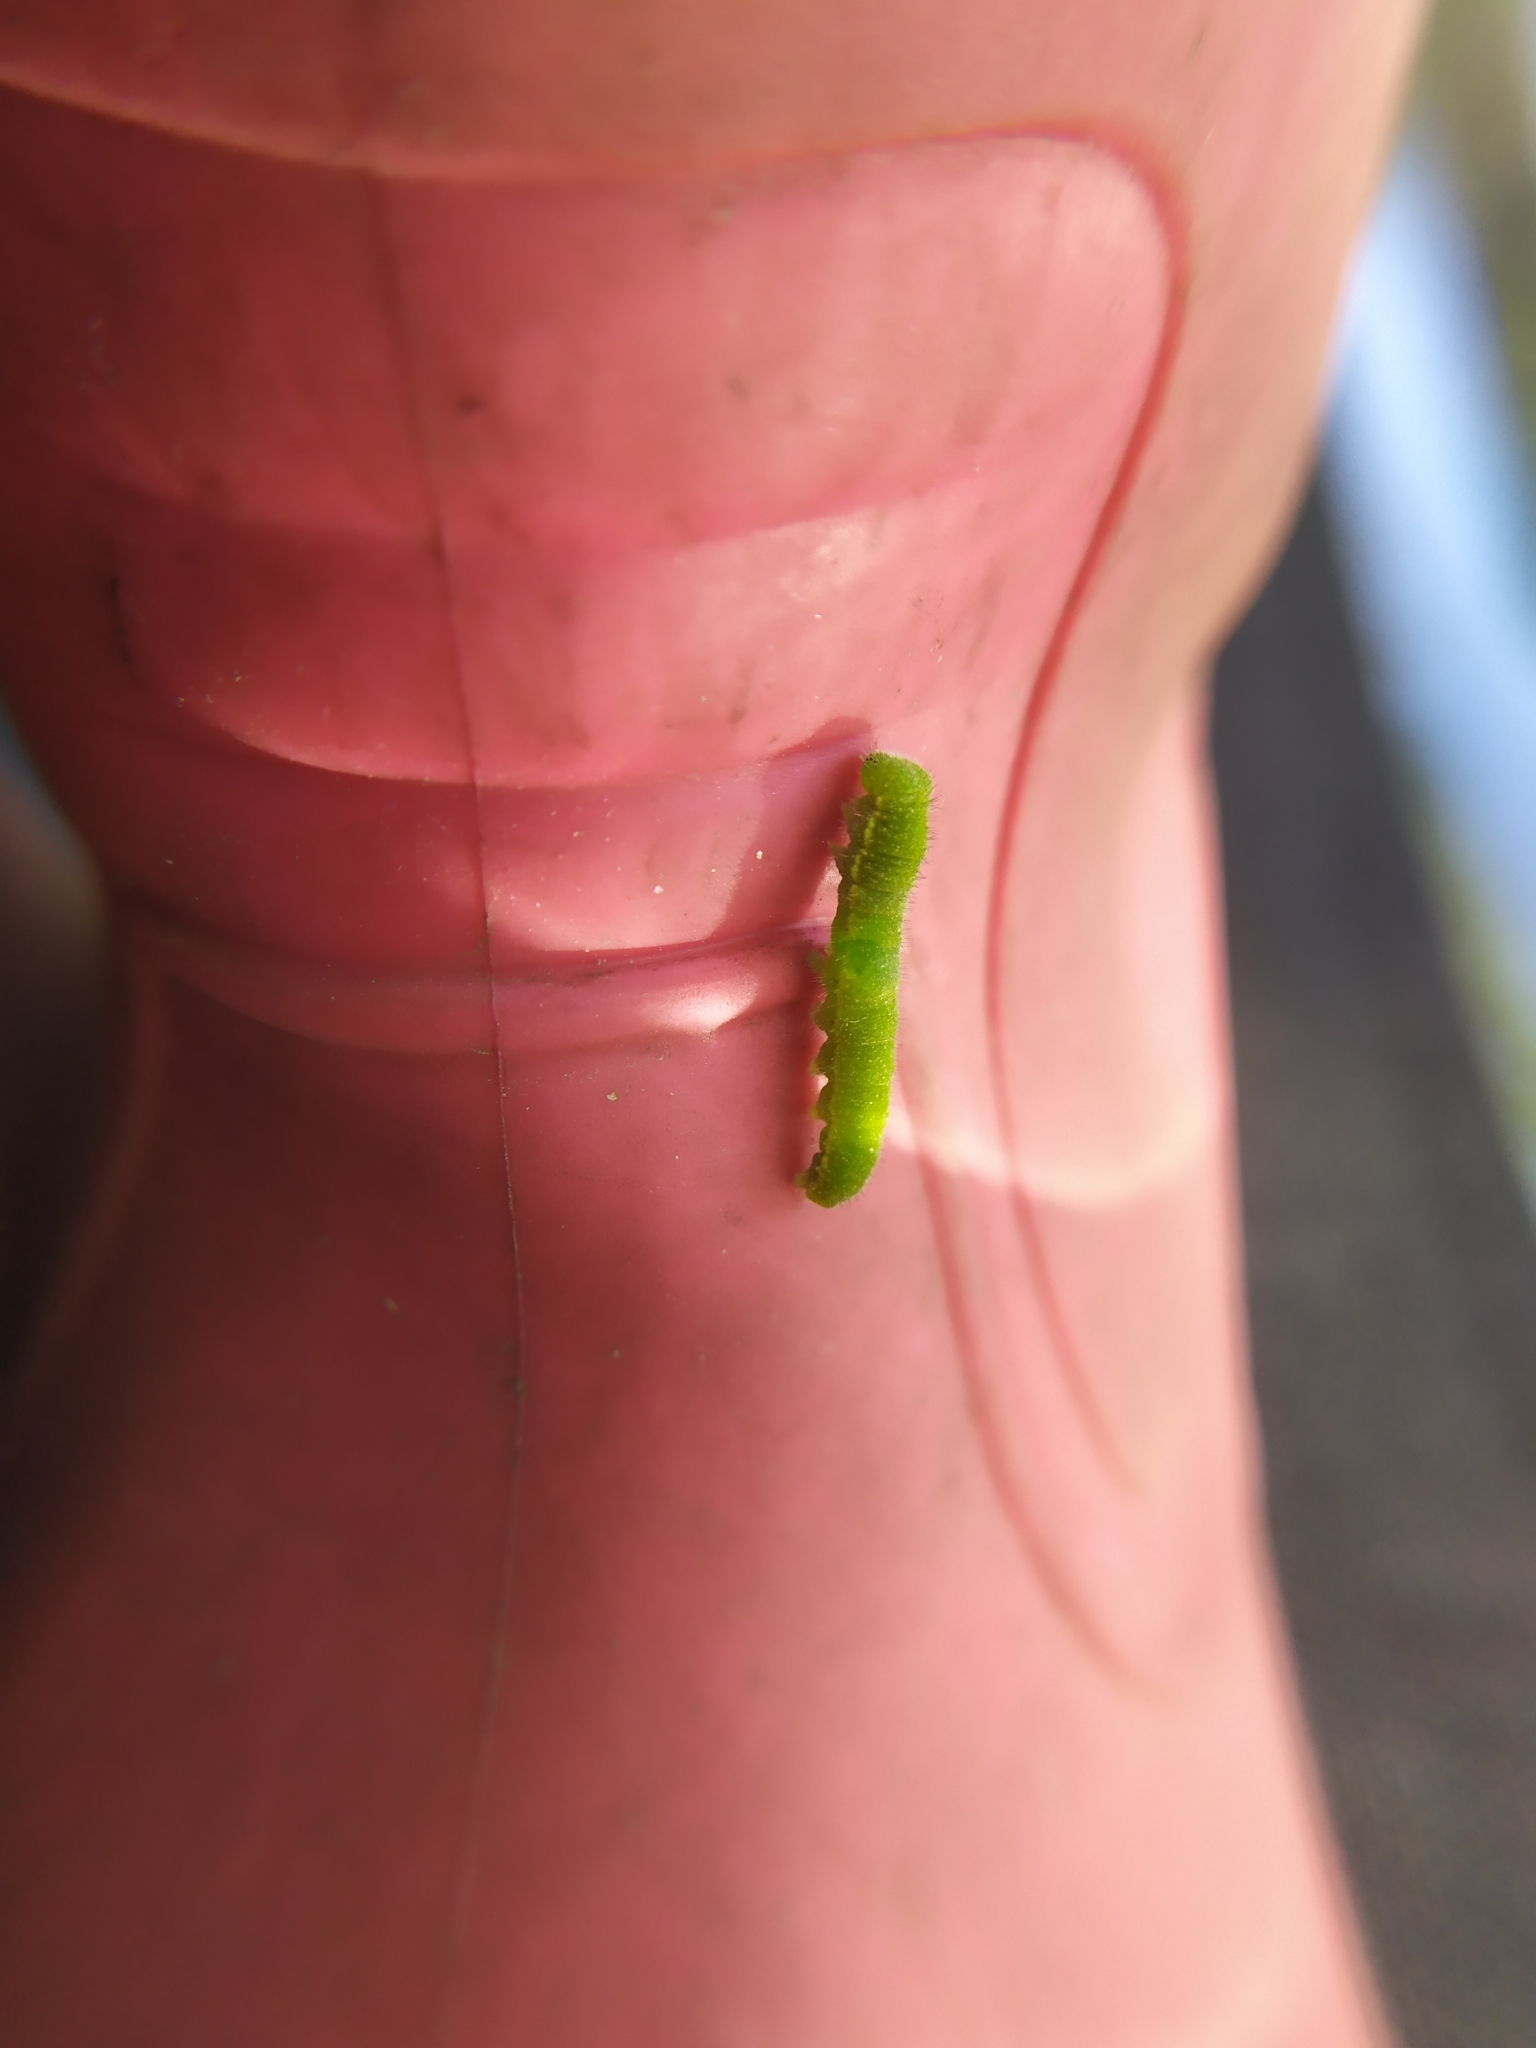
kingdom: Animalia
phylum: Arthropoda
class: Insecta
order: Lepidoptera
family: Nymphalidae
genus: Libythea
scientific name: Libythea celtis
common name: Nettle-tree butterfly
